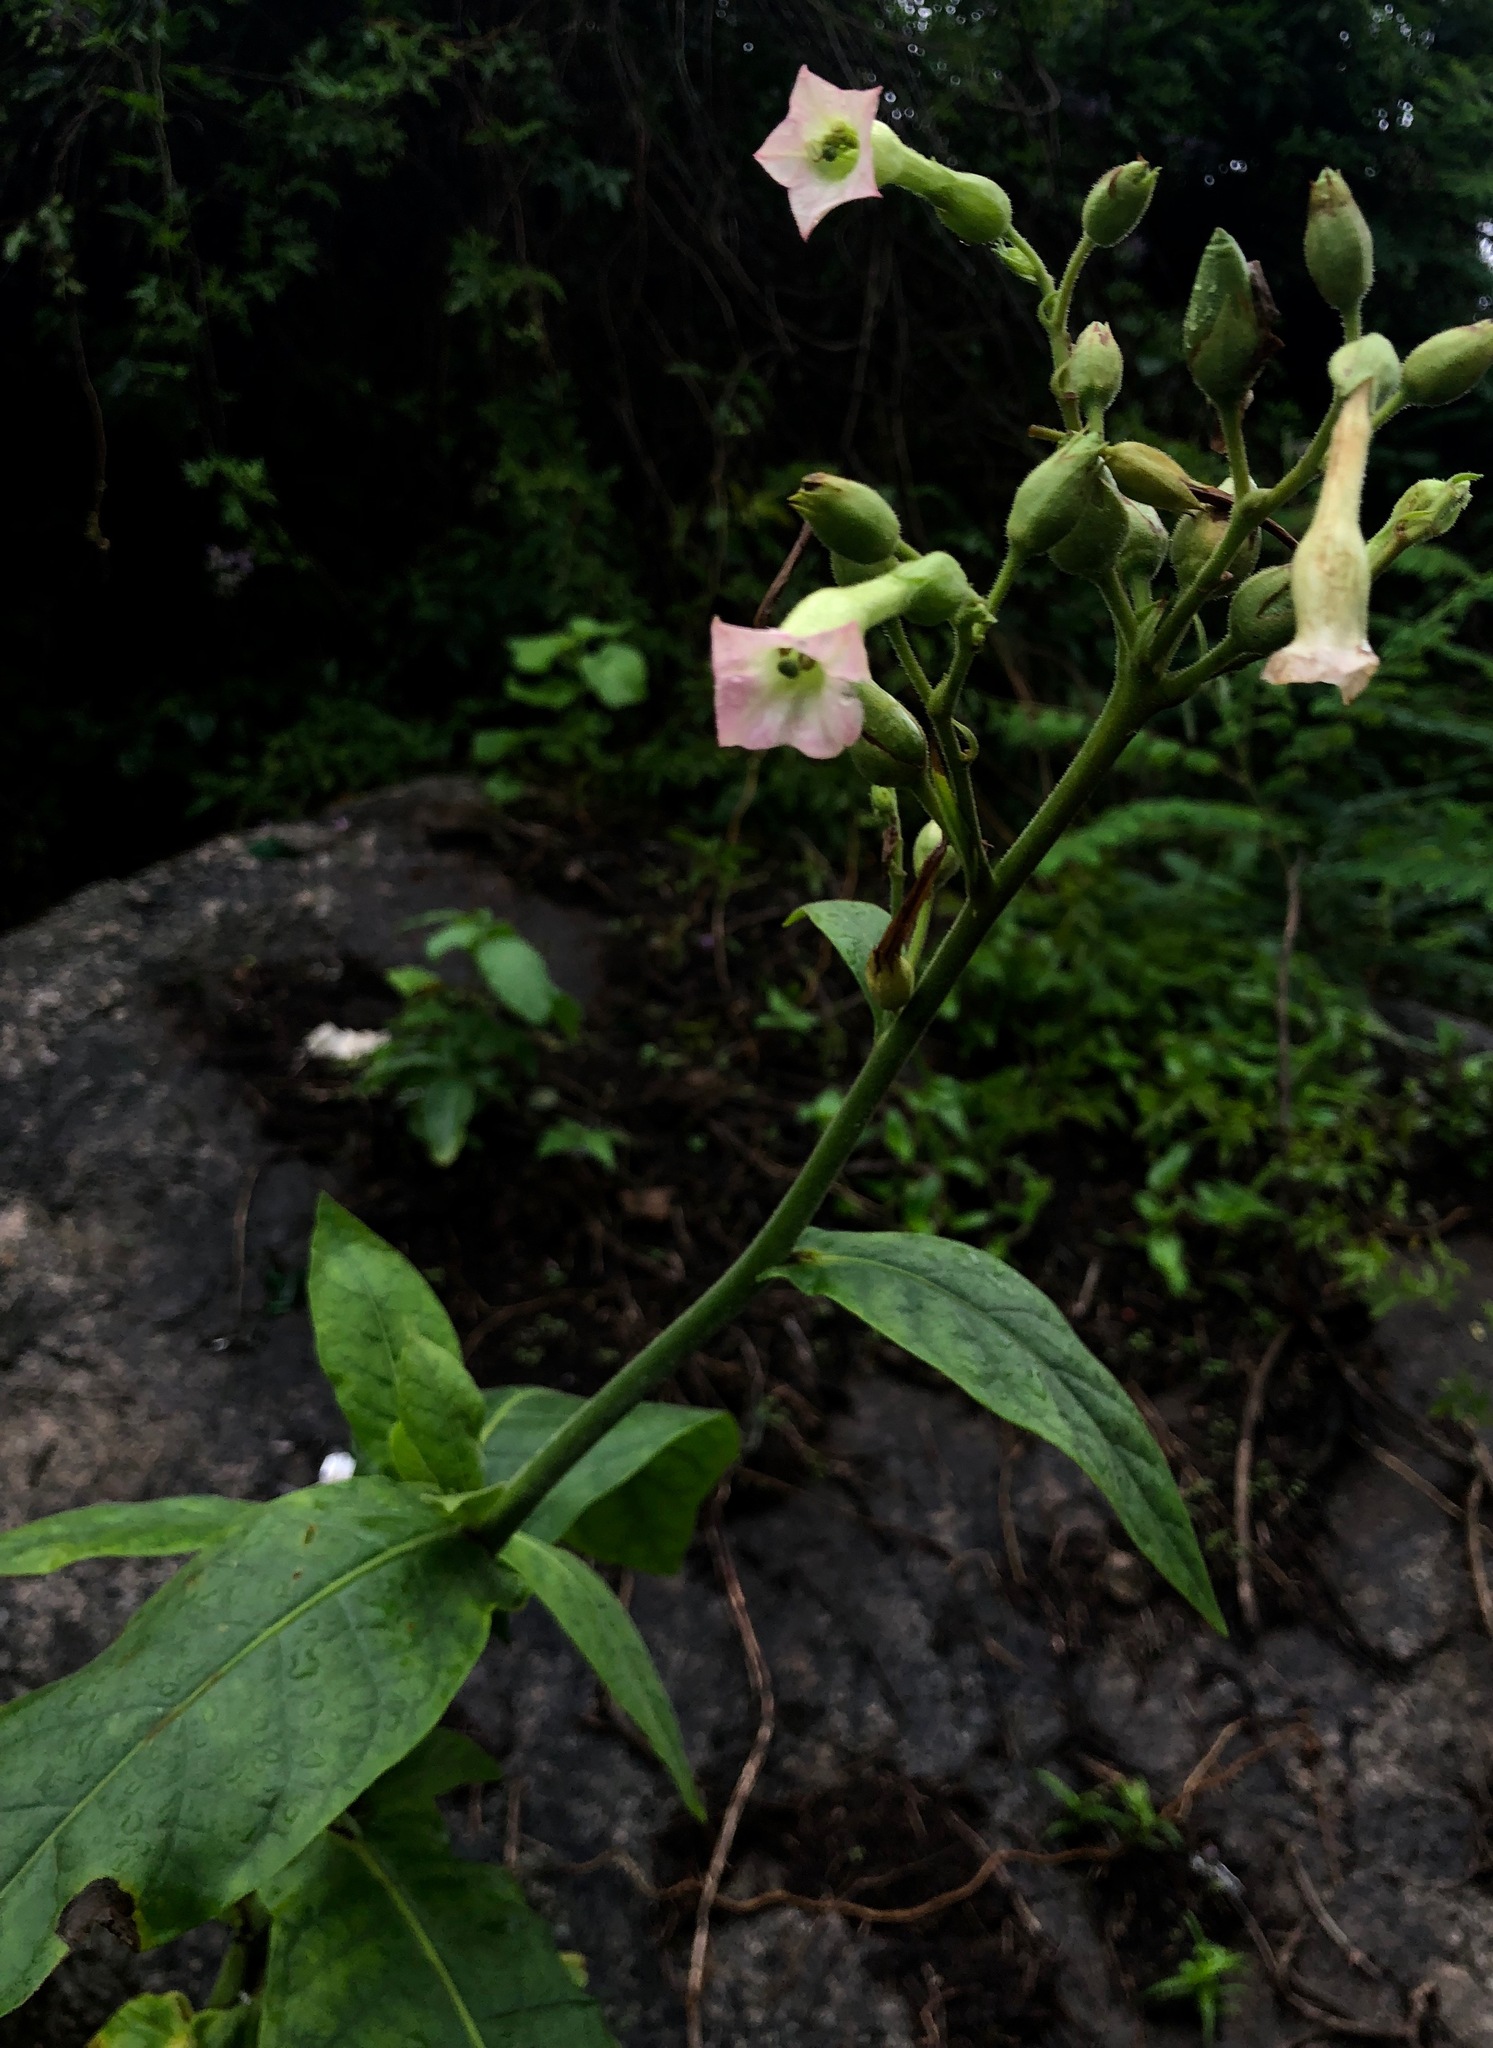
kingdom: Plantae
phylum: Tracheophyta
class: Magnoliopsida
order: Solanales
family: Solanaceae
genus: Nicotiana
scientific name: Nicotiana tabacum
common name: Tobacco
